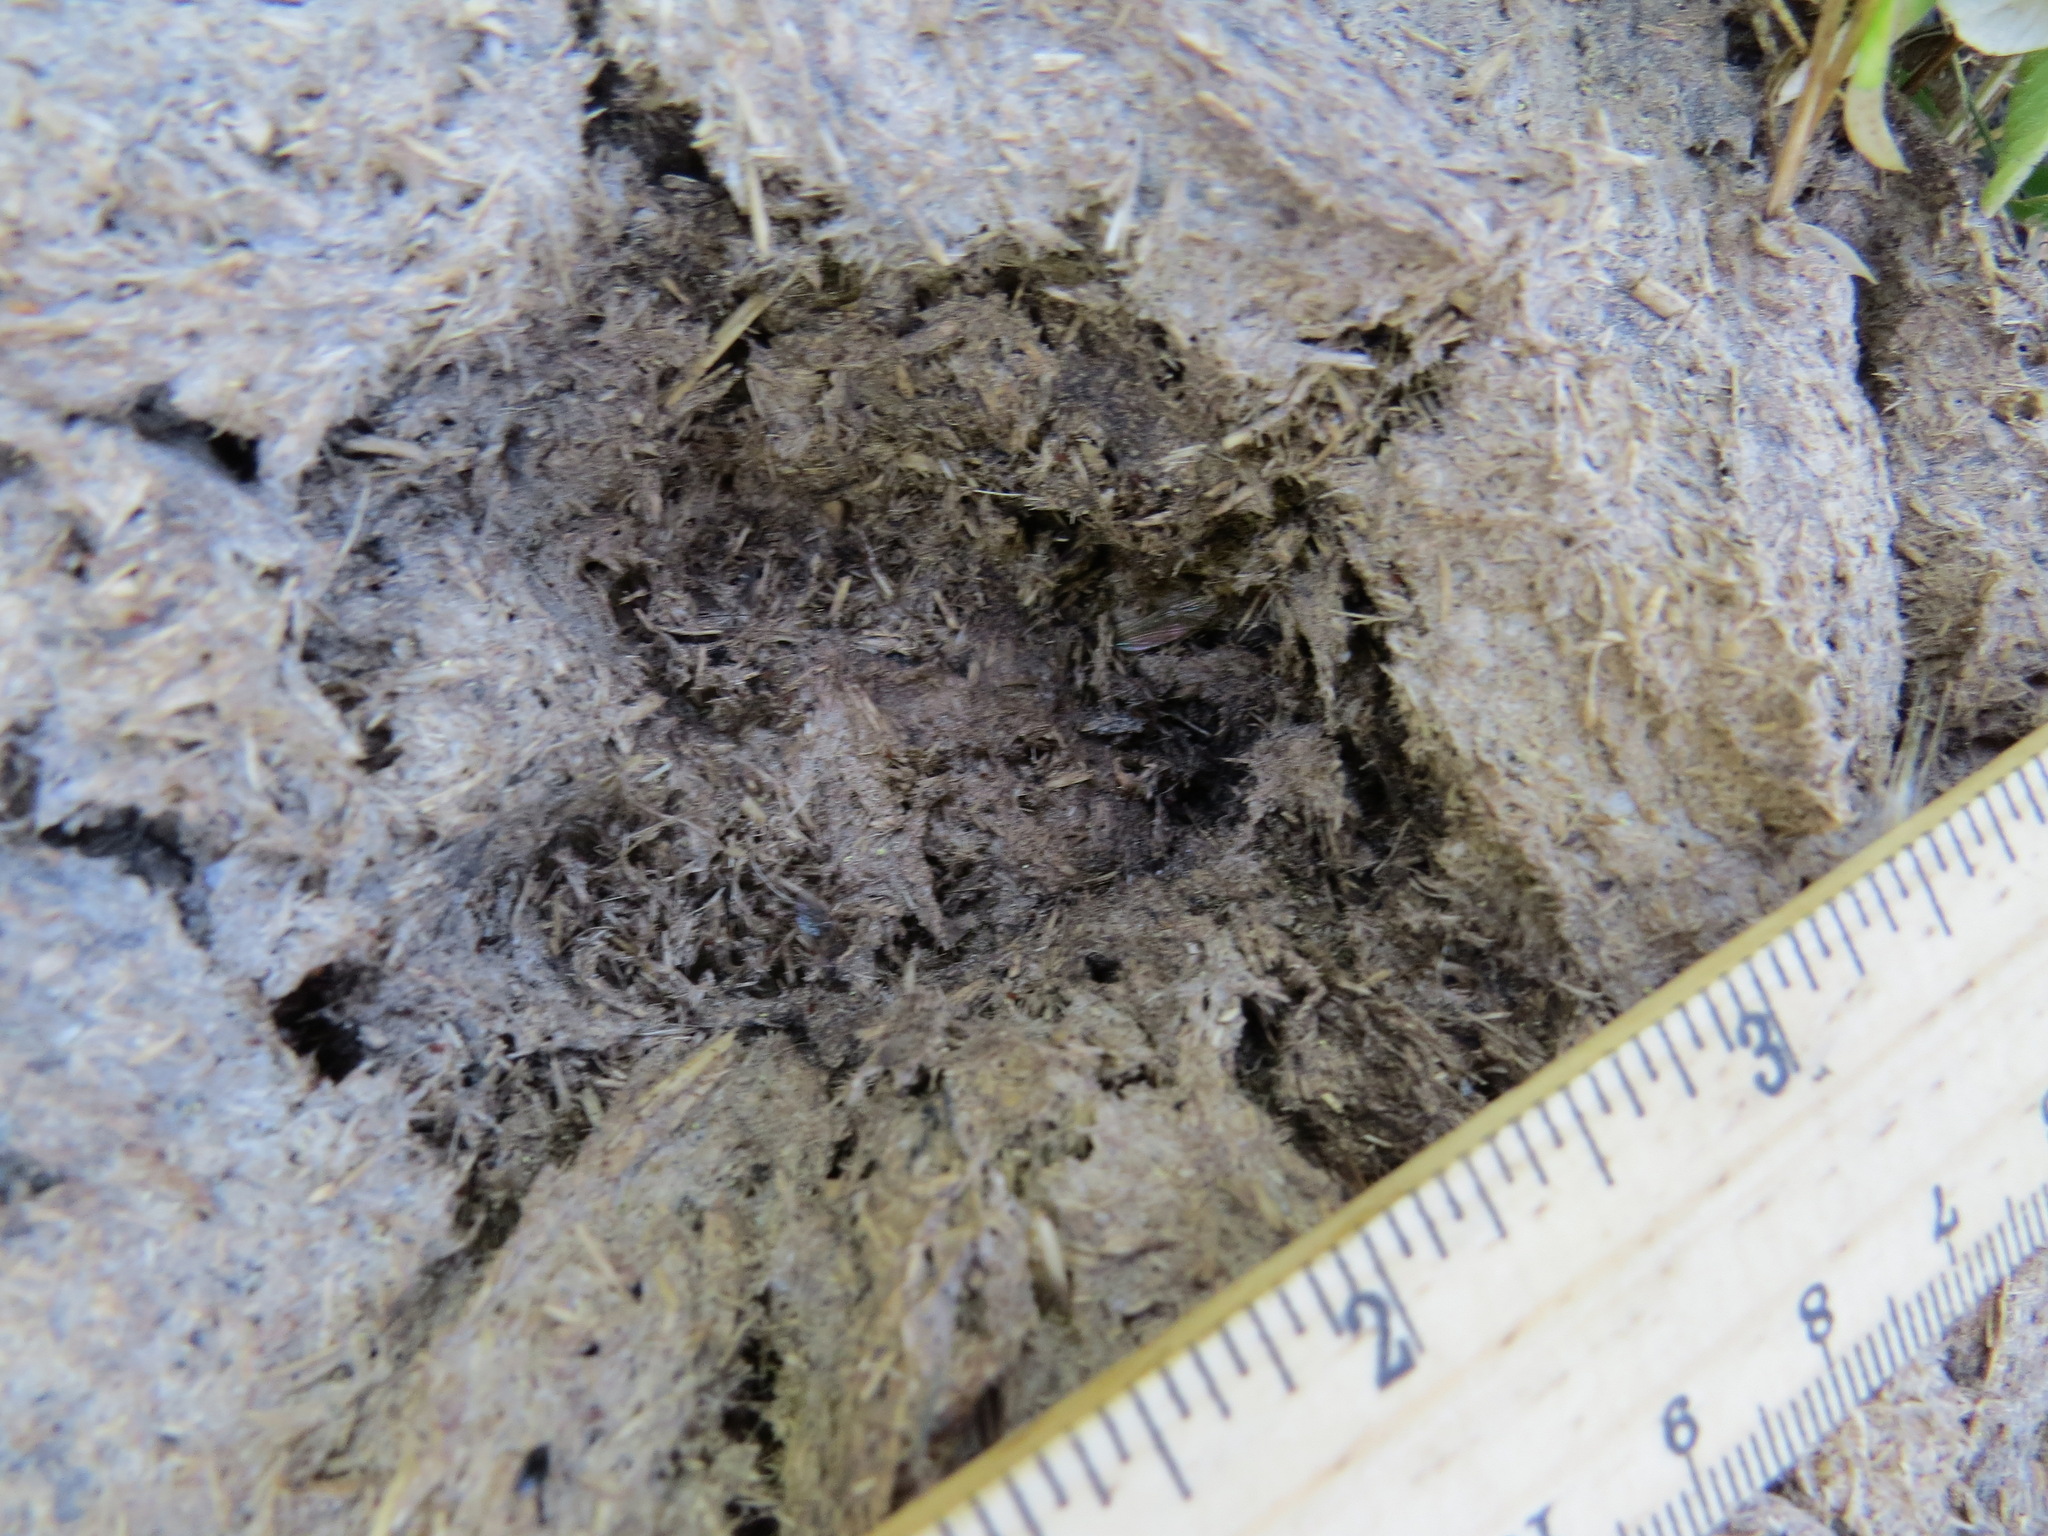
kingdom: Animalia
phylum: Chordata
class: Mammalia
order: Artiodactyla
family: Cervidae
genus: Odocoileus
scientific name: Odocoileus hemionus
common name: Mule deer
